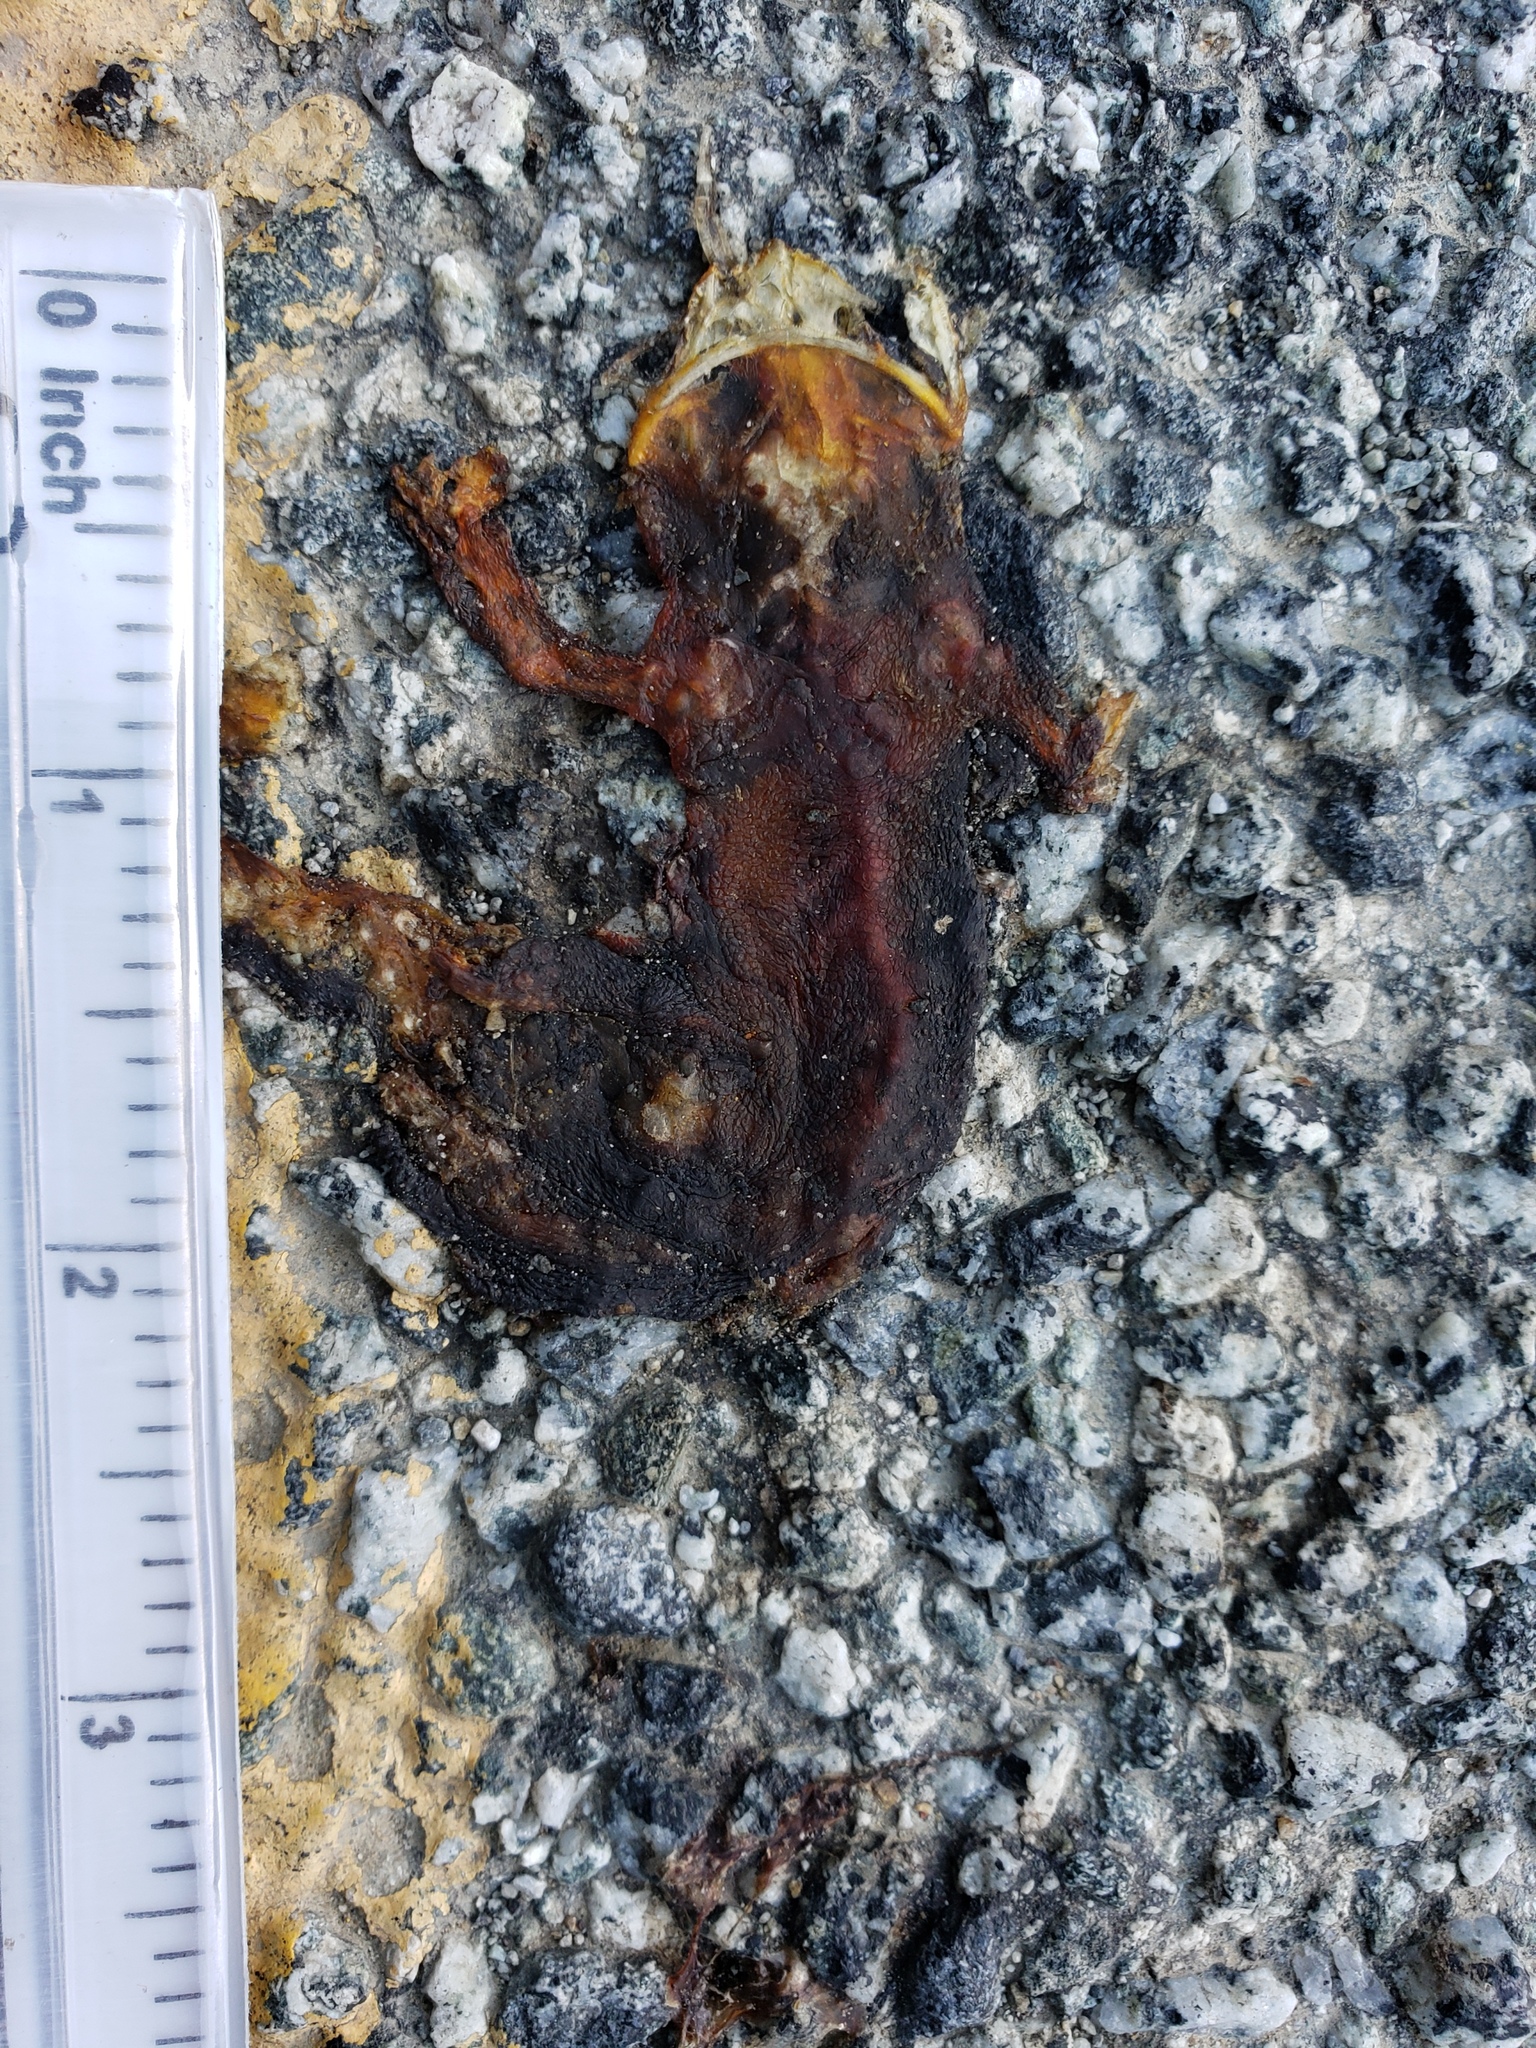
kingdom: Animalia
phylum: Chordata
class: Amphibia
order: Caudata
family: Salamandridae
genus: Taricha
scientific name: Taricha
